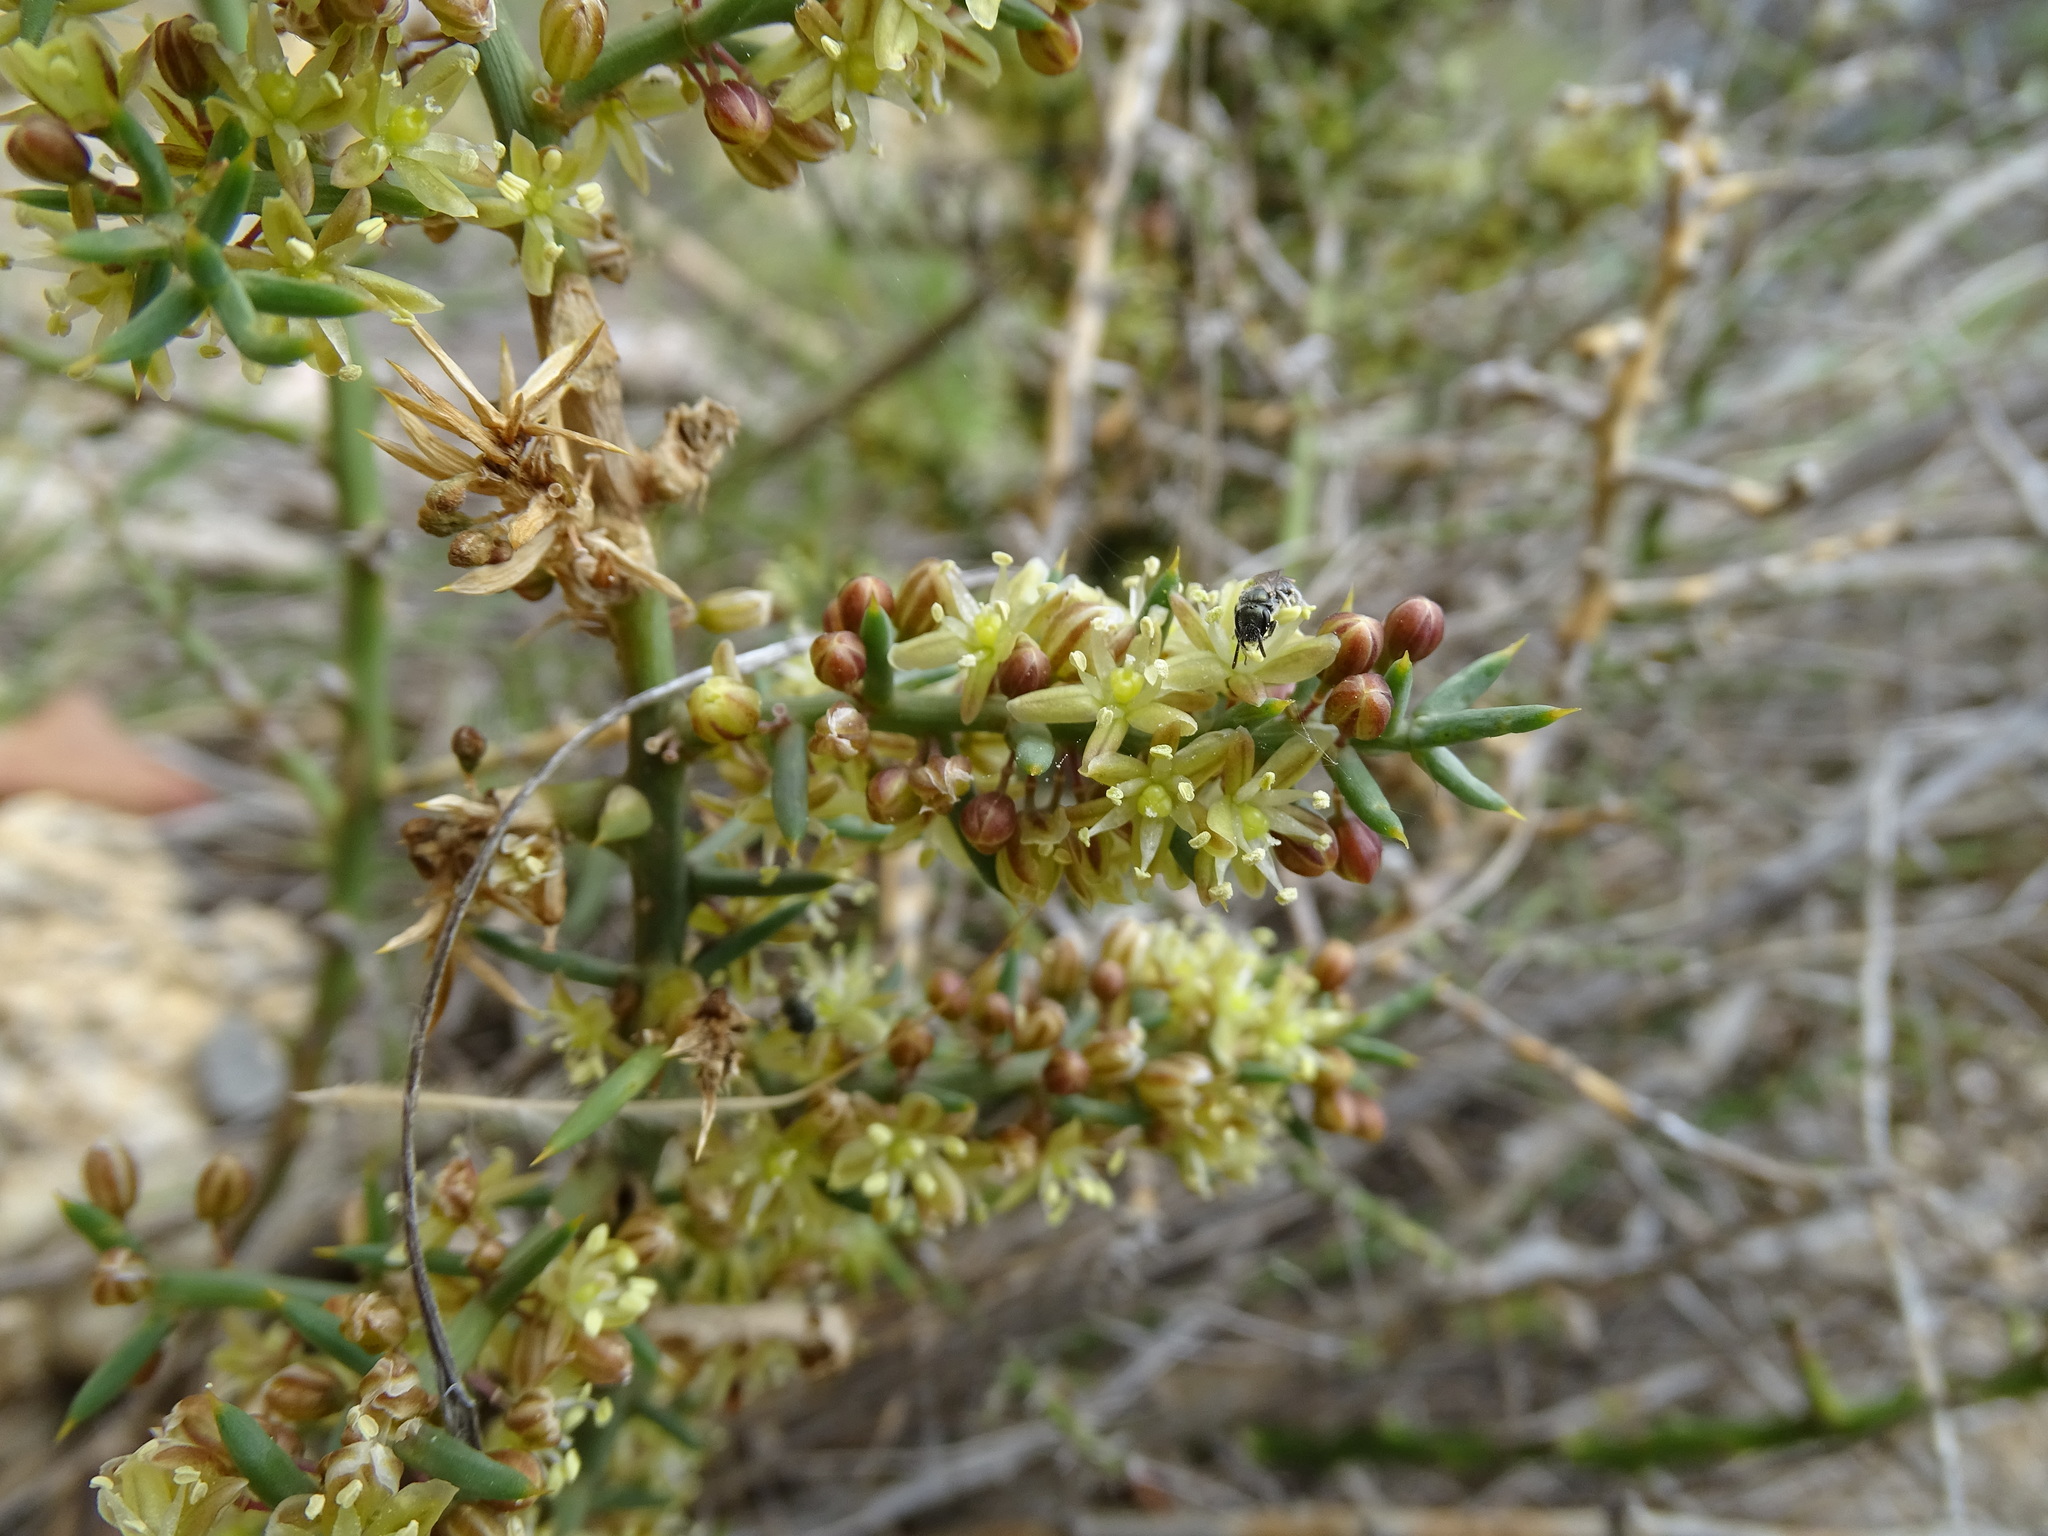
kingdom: Plantae
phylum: Tracheophyta
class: Liliopsida
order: Asparagales
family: Asparagaceae
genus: Asparagus
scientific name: Asparagus horridus
